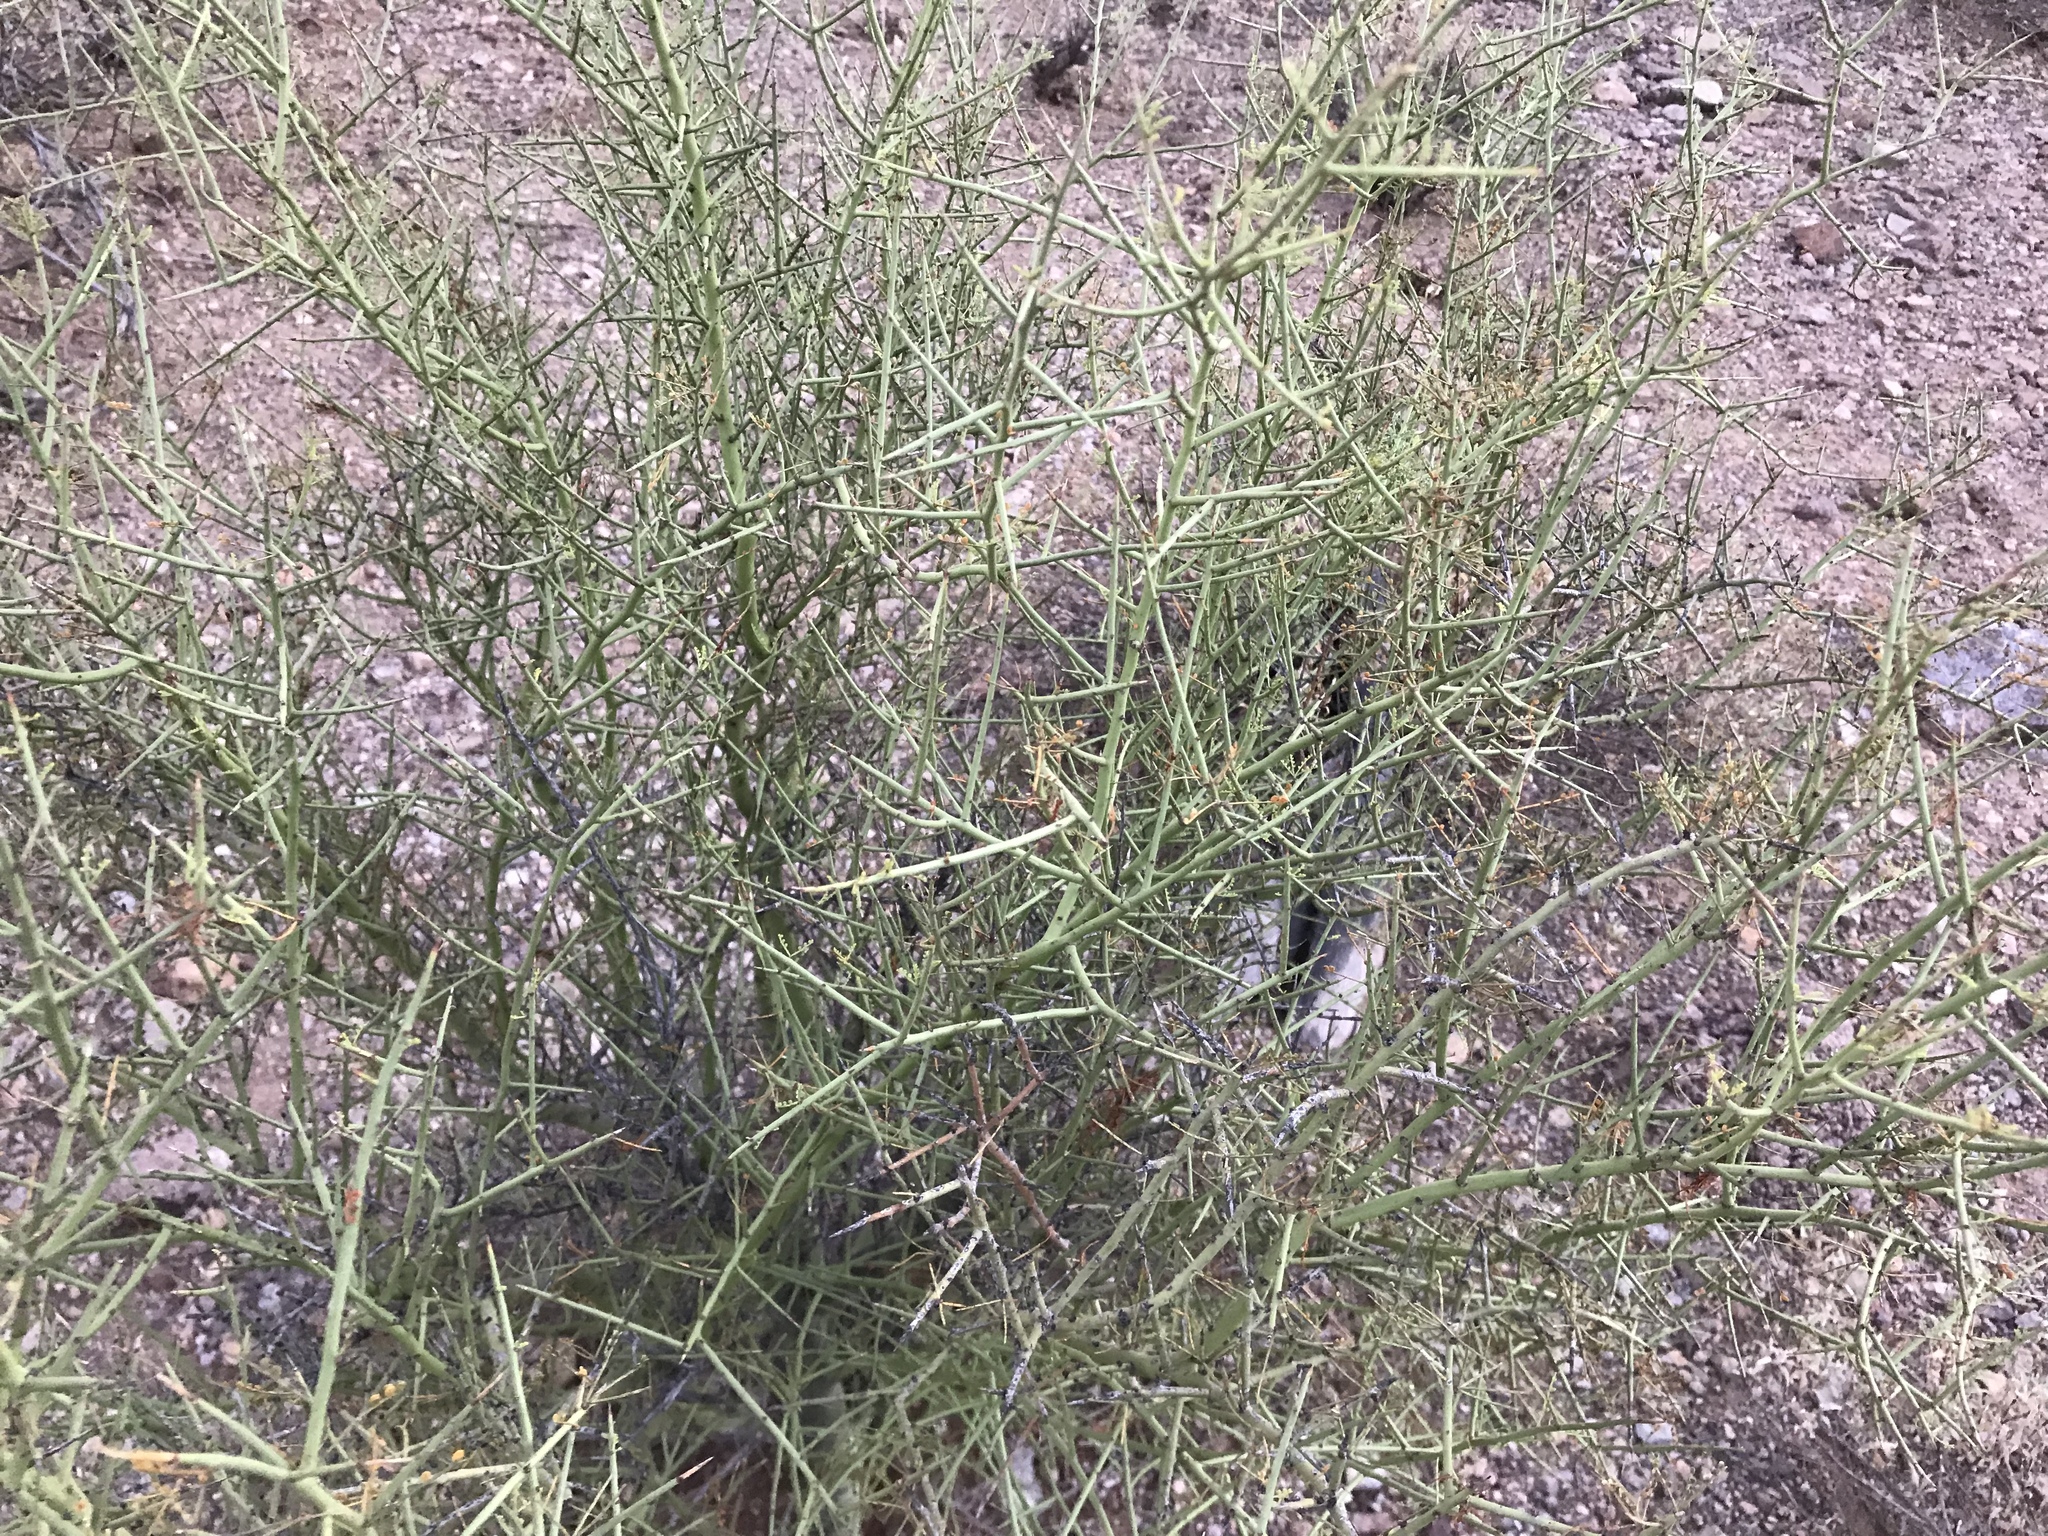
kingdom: Plantae
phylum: Tracheophyta
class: Magnoliopsida
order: Fabales
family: Fabaceae
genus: Parkinsonia
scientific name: Parkinsonia microphylla
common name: Yellow paloverde
